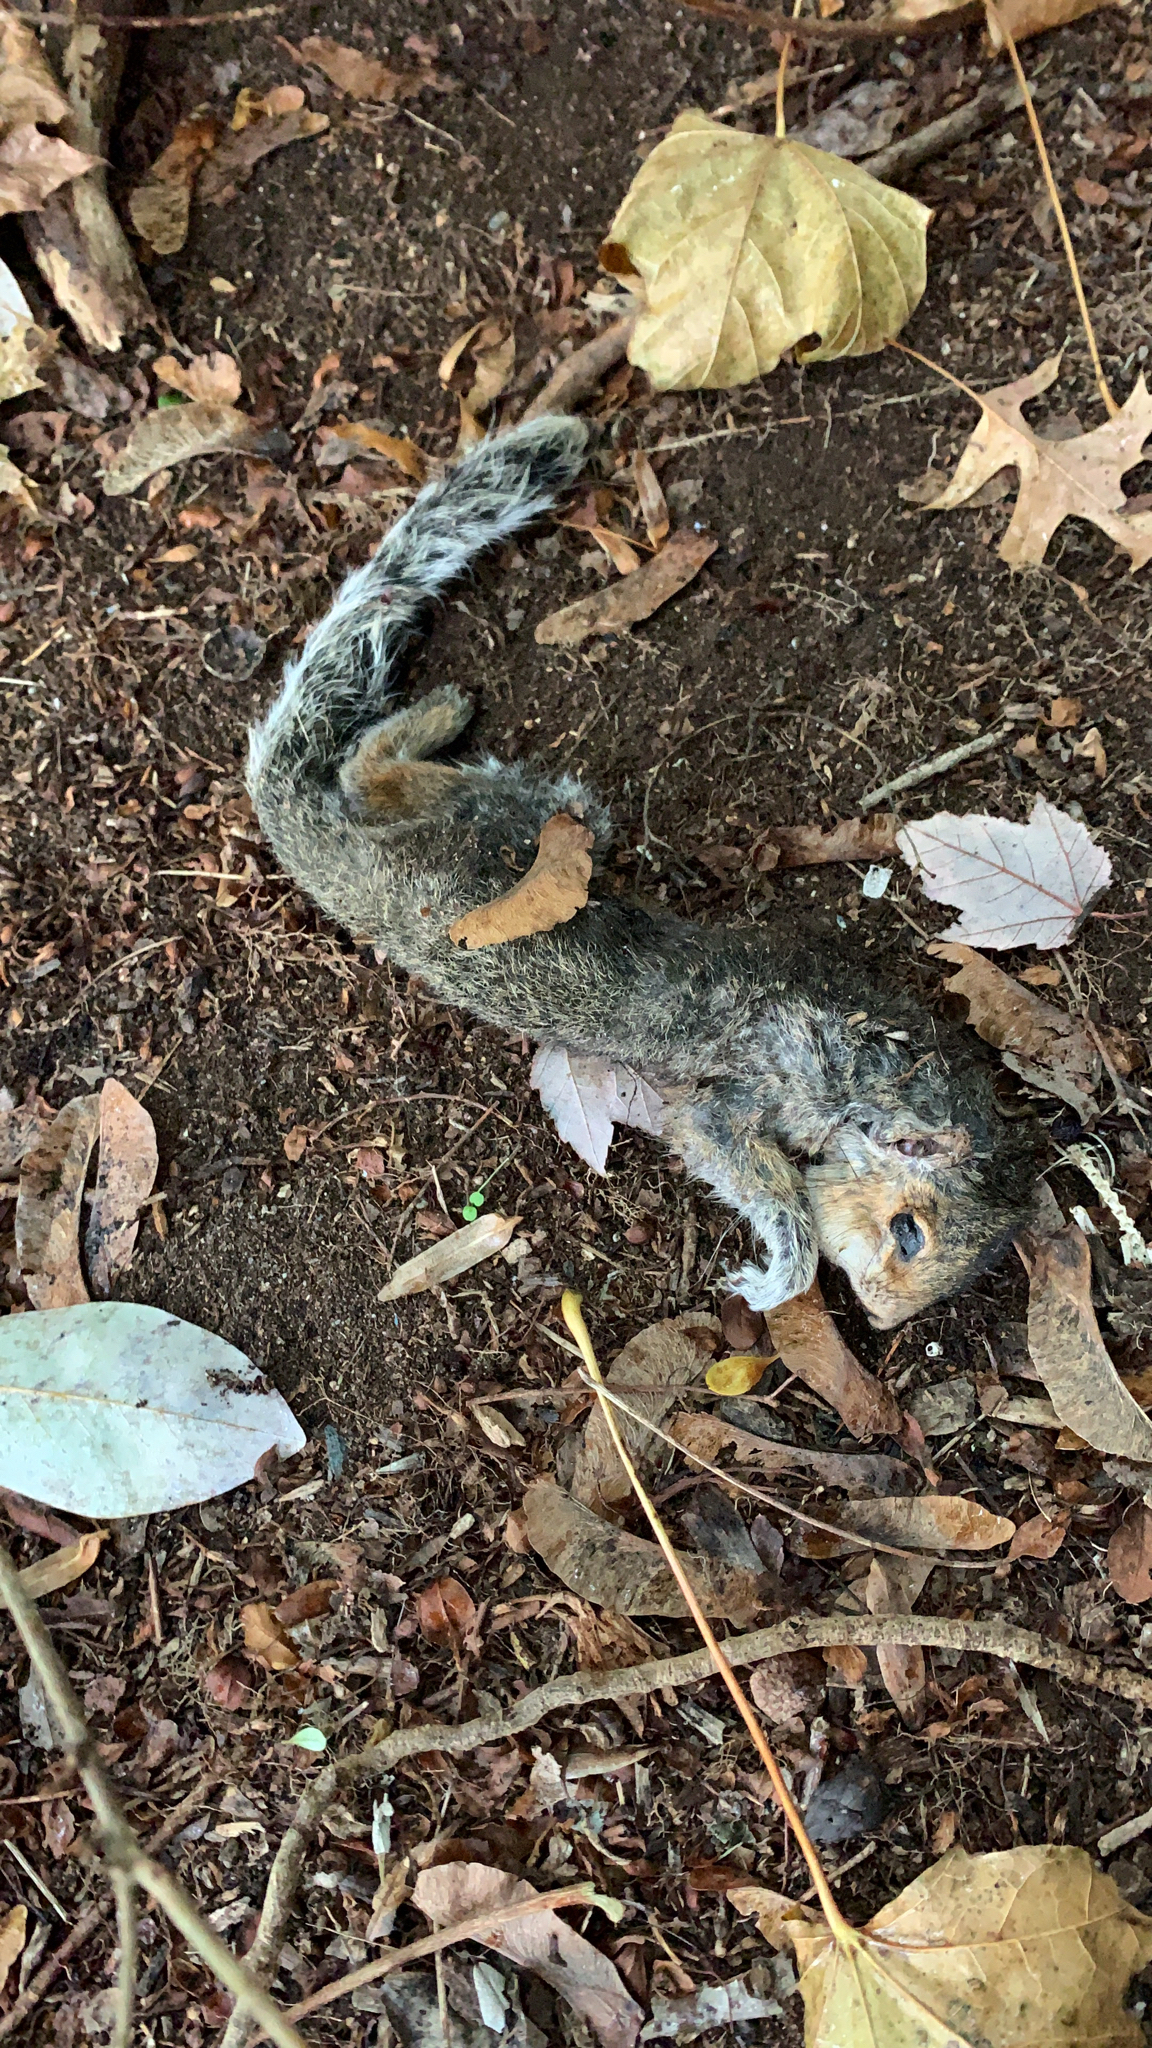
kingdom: Animalia
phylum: Chordata
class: Mammalia
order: Rodentia
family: Sciuridae
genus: Sciurus
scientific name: Sciurus carolinensis
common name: Eastern gray squirrel
